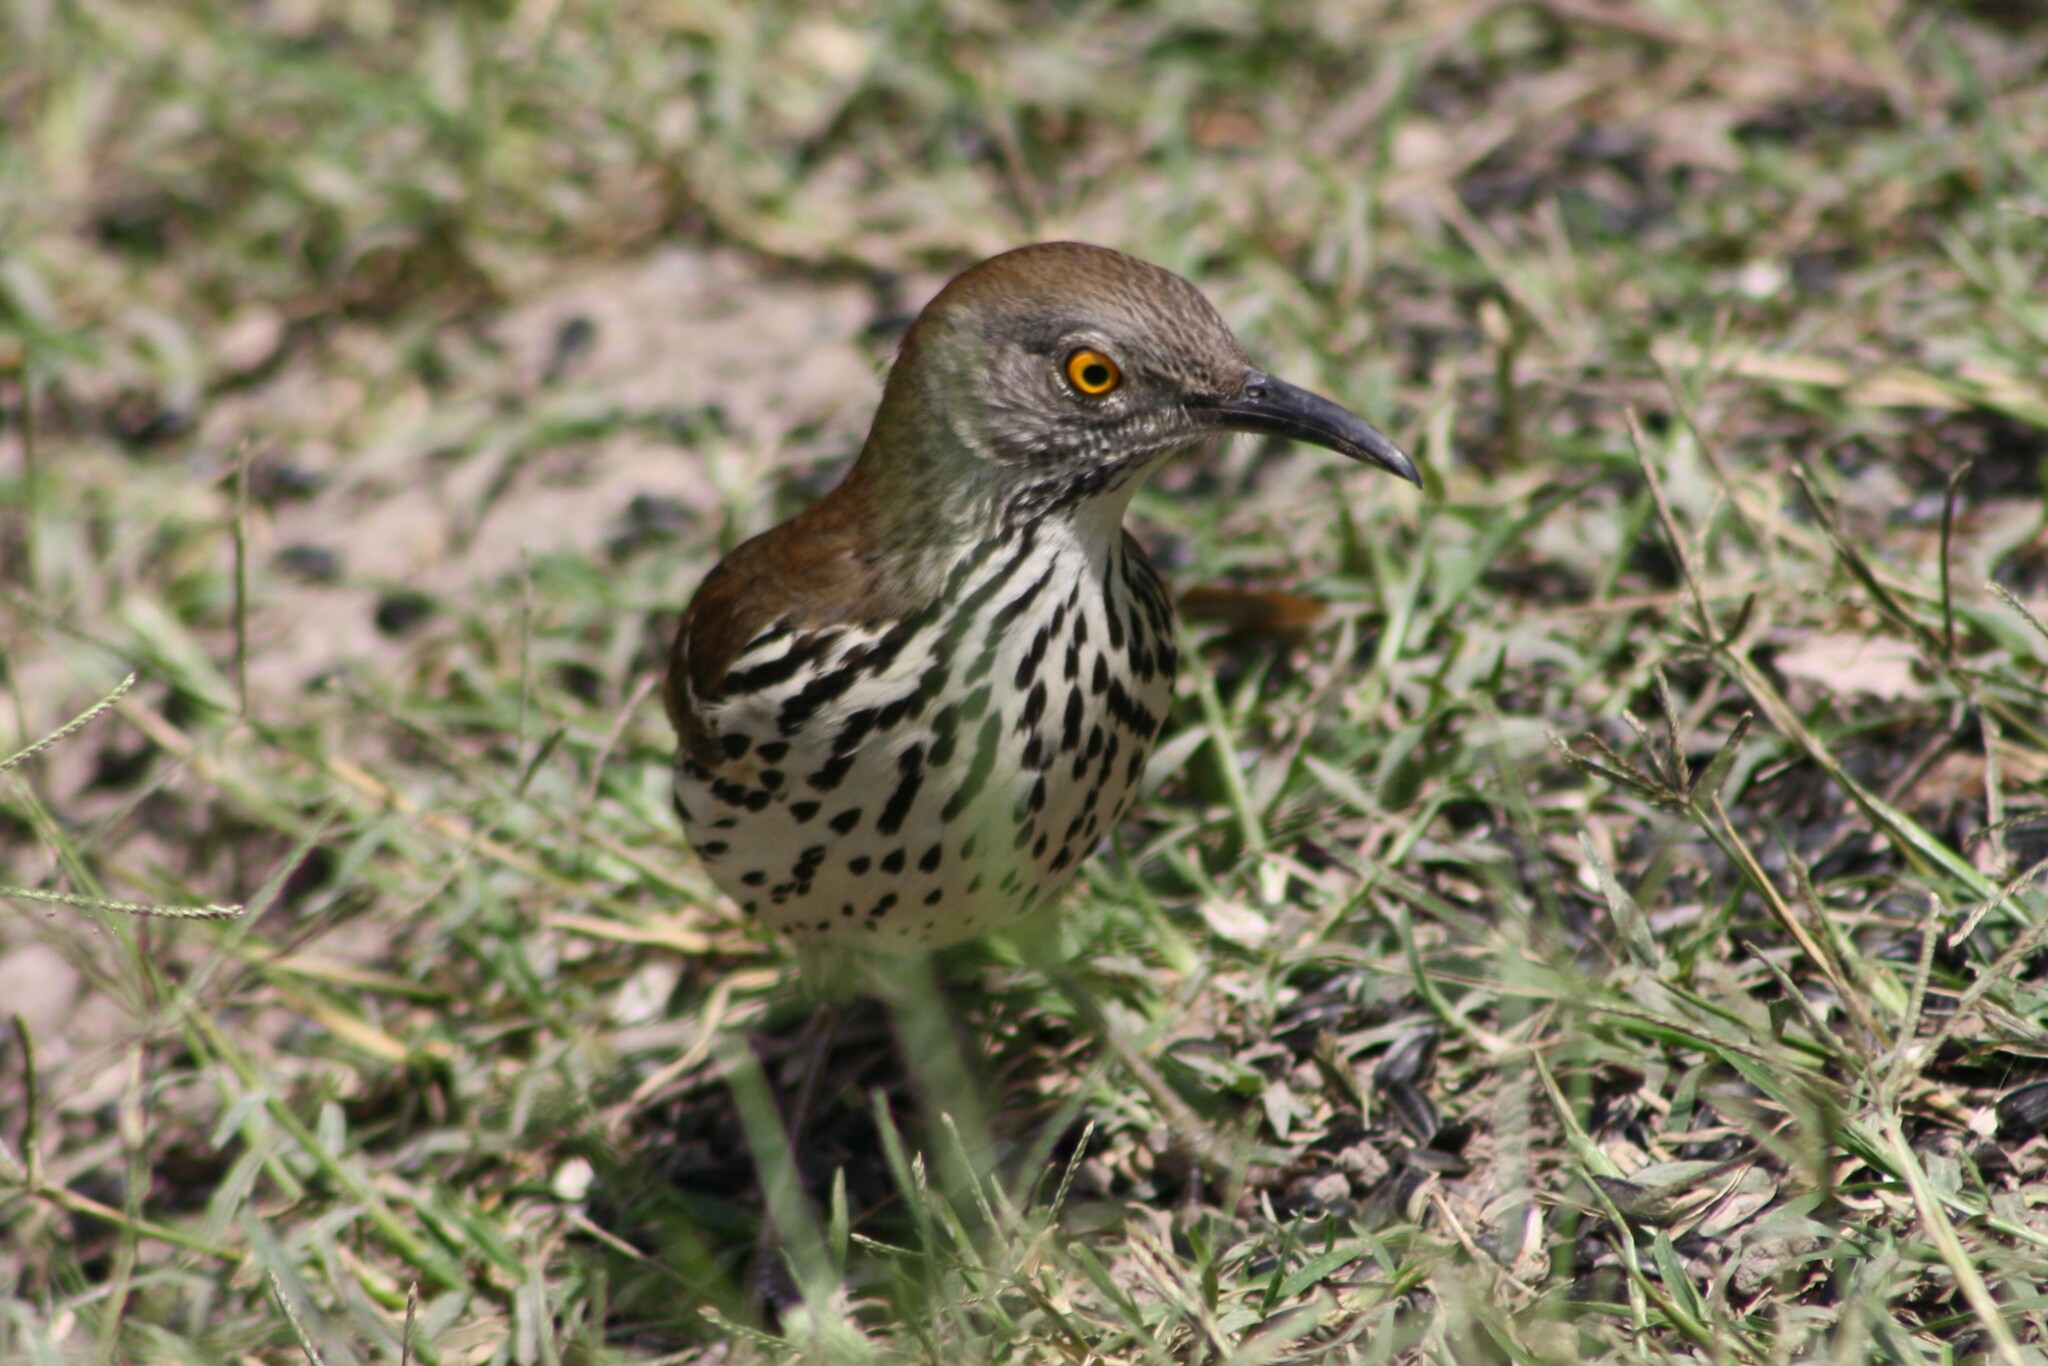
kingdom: Animalia
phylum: Chordata
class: Aves
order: Passeriformes
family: Mimidae
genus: Toxostoma
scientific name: Toxostoma longirostre
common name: Long-billed thrasher
